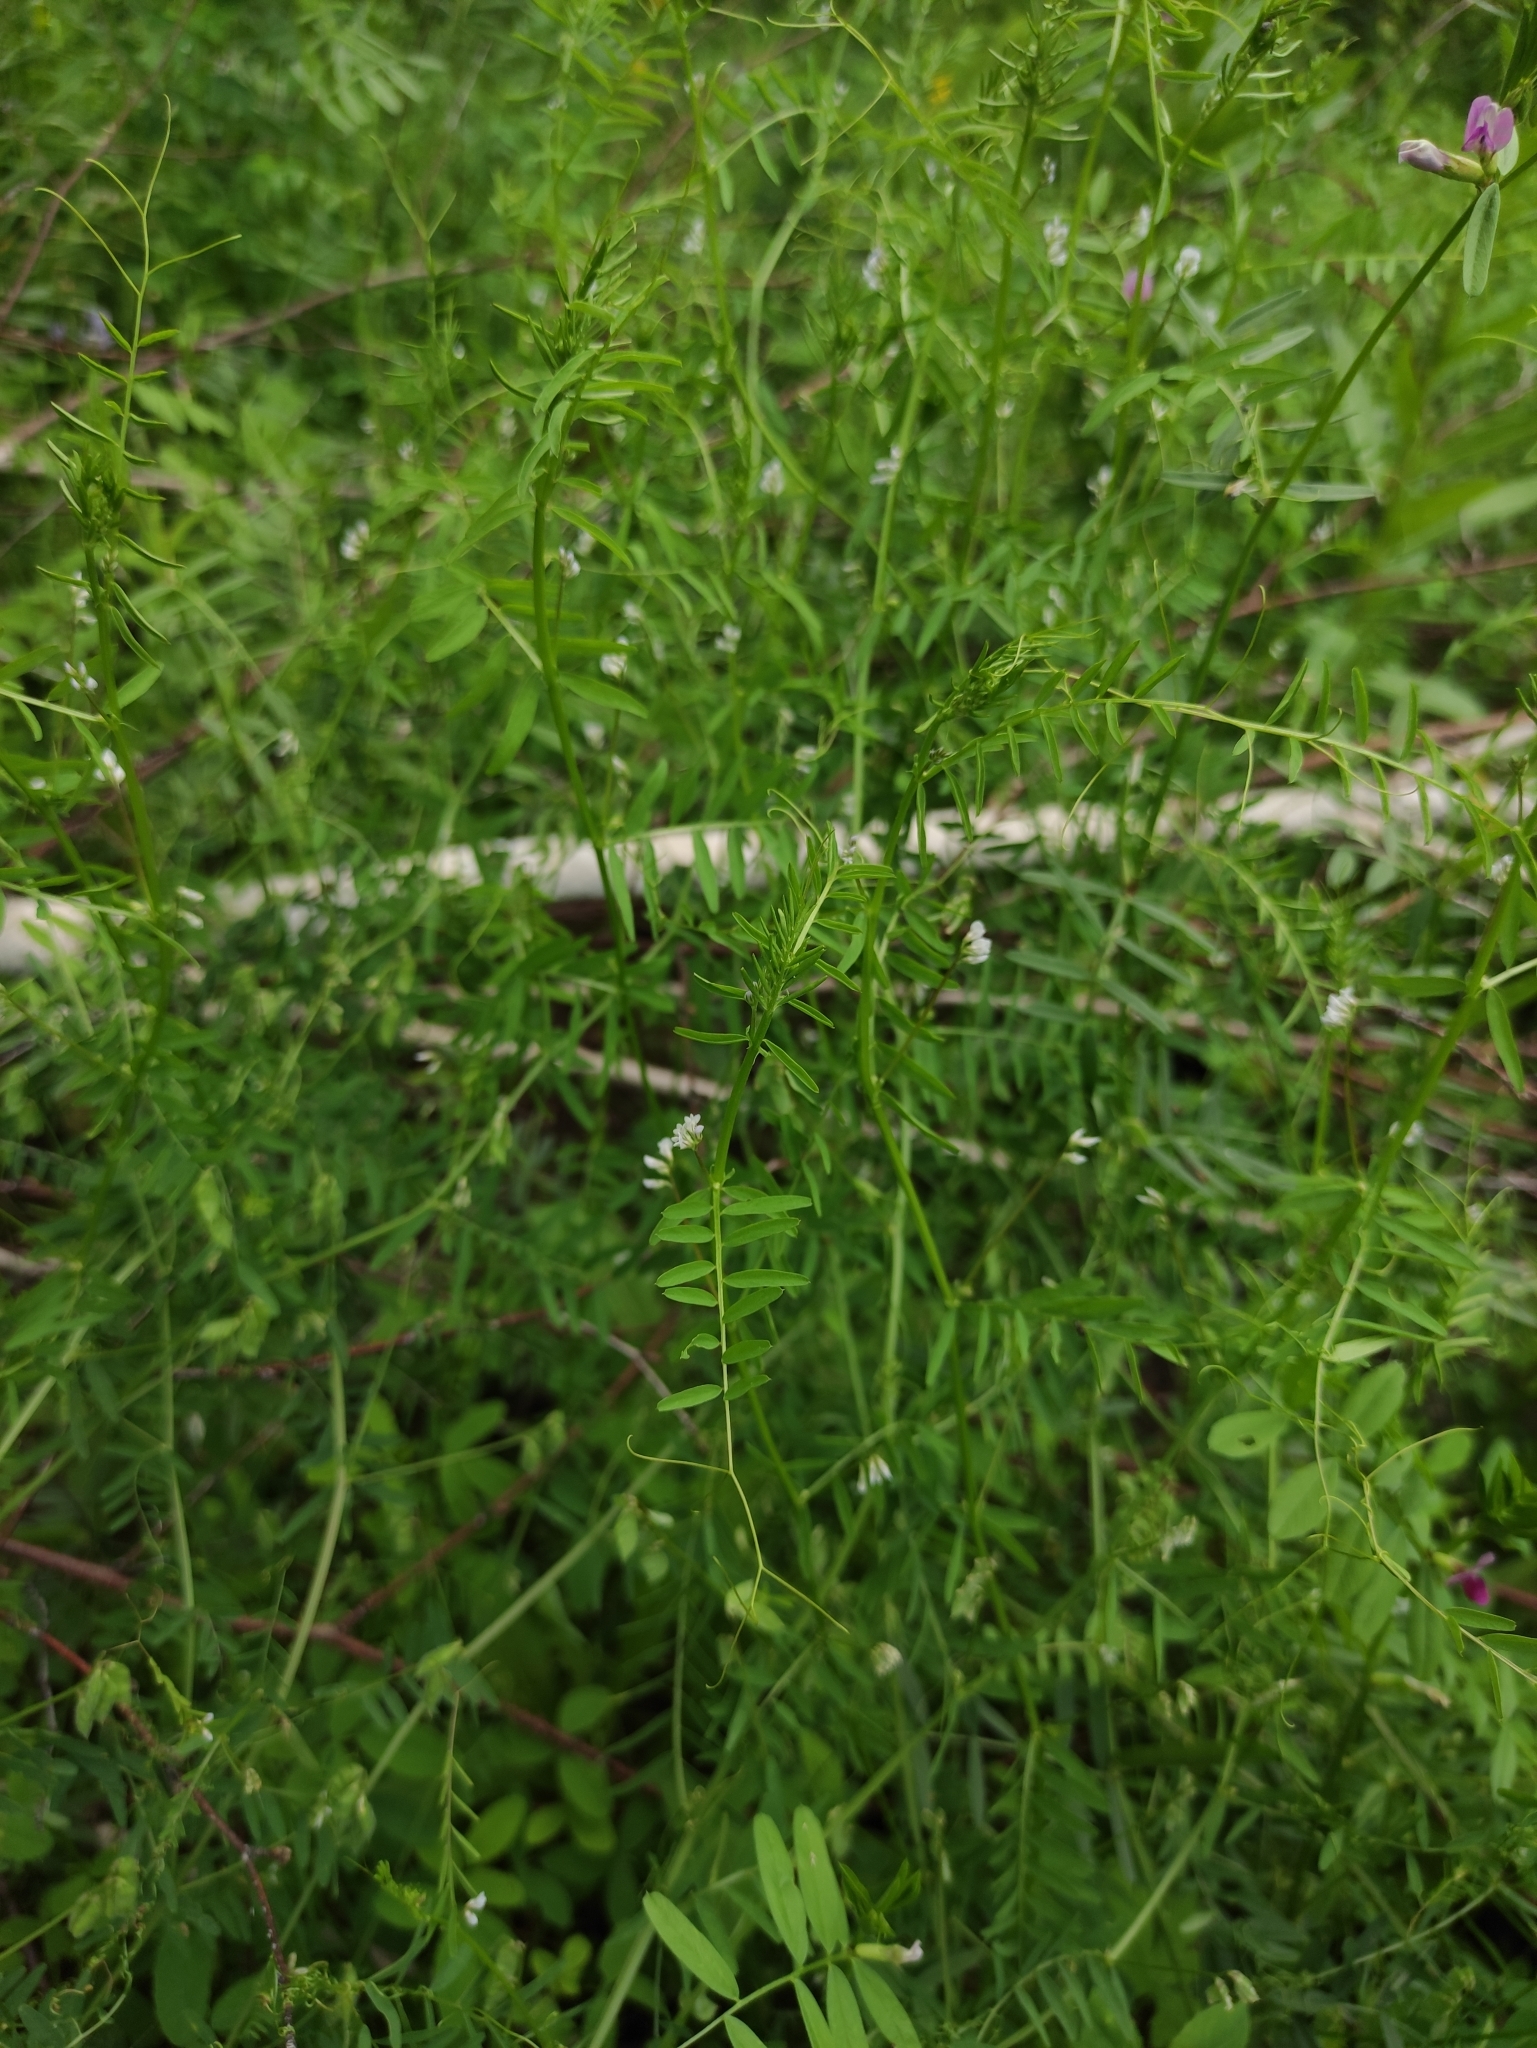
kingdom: Plantae
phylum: Tracheophyta
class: Magnoliopsida
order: Fabales
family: Fabaceae
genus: Vicia
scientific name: Vicia hirsuta
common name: Tiny vetch
